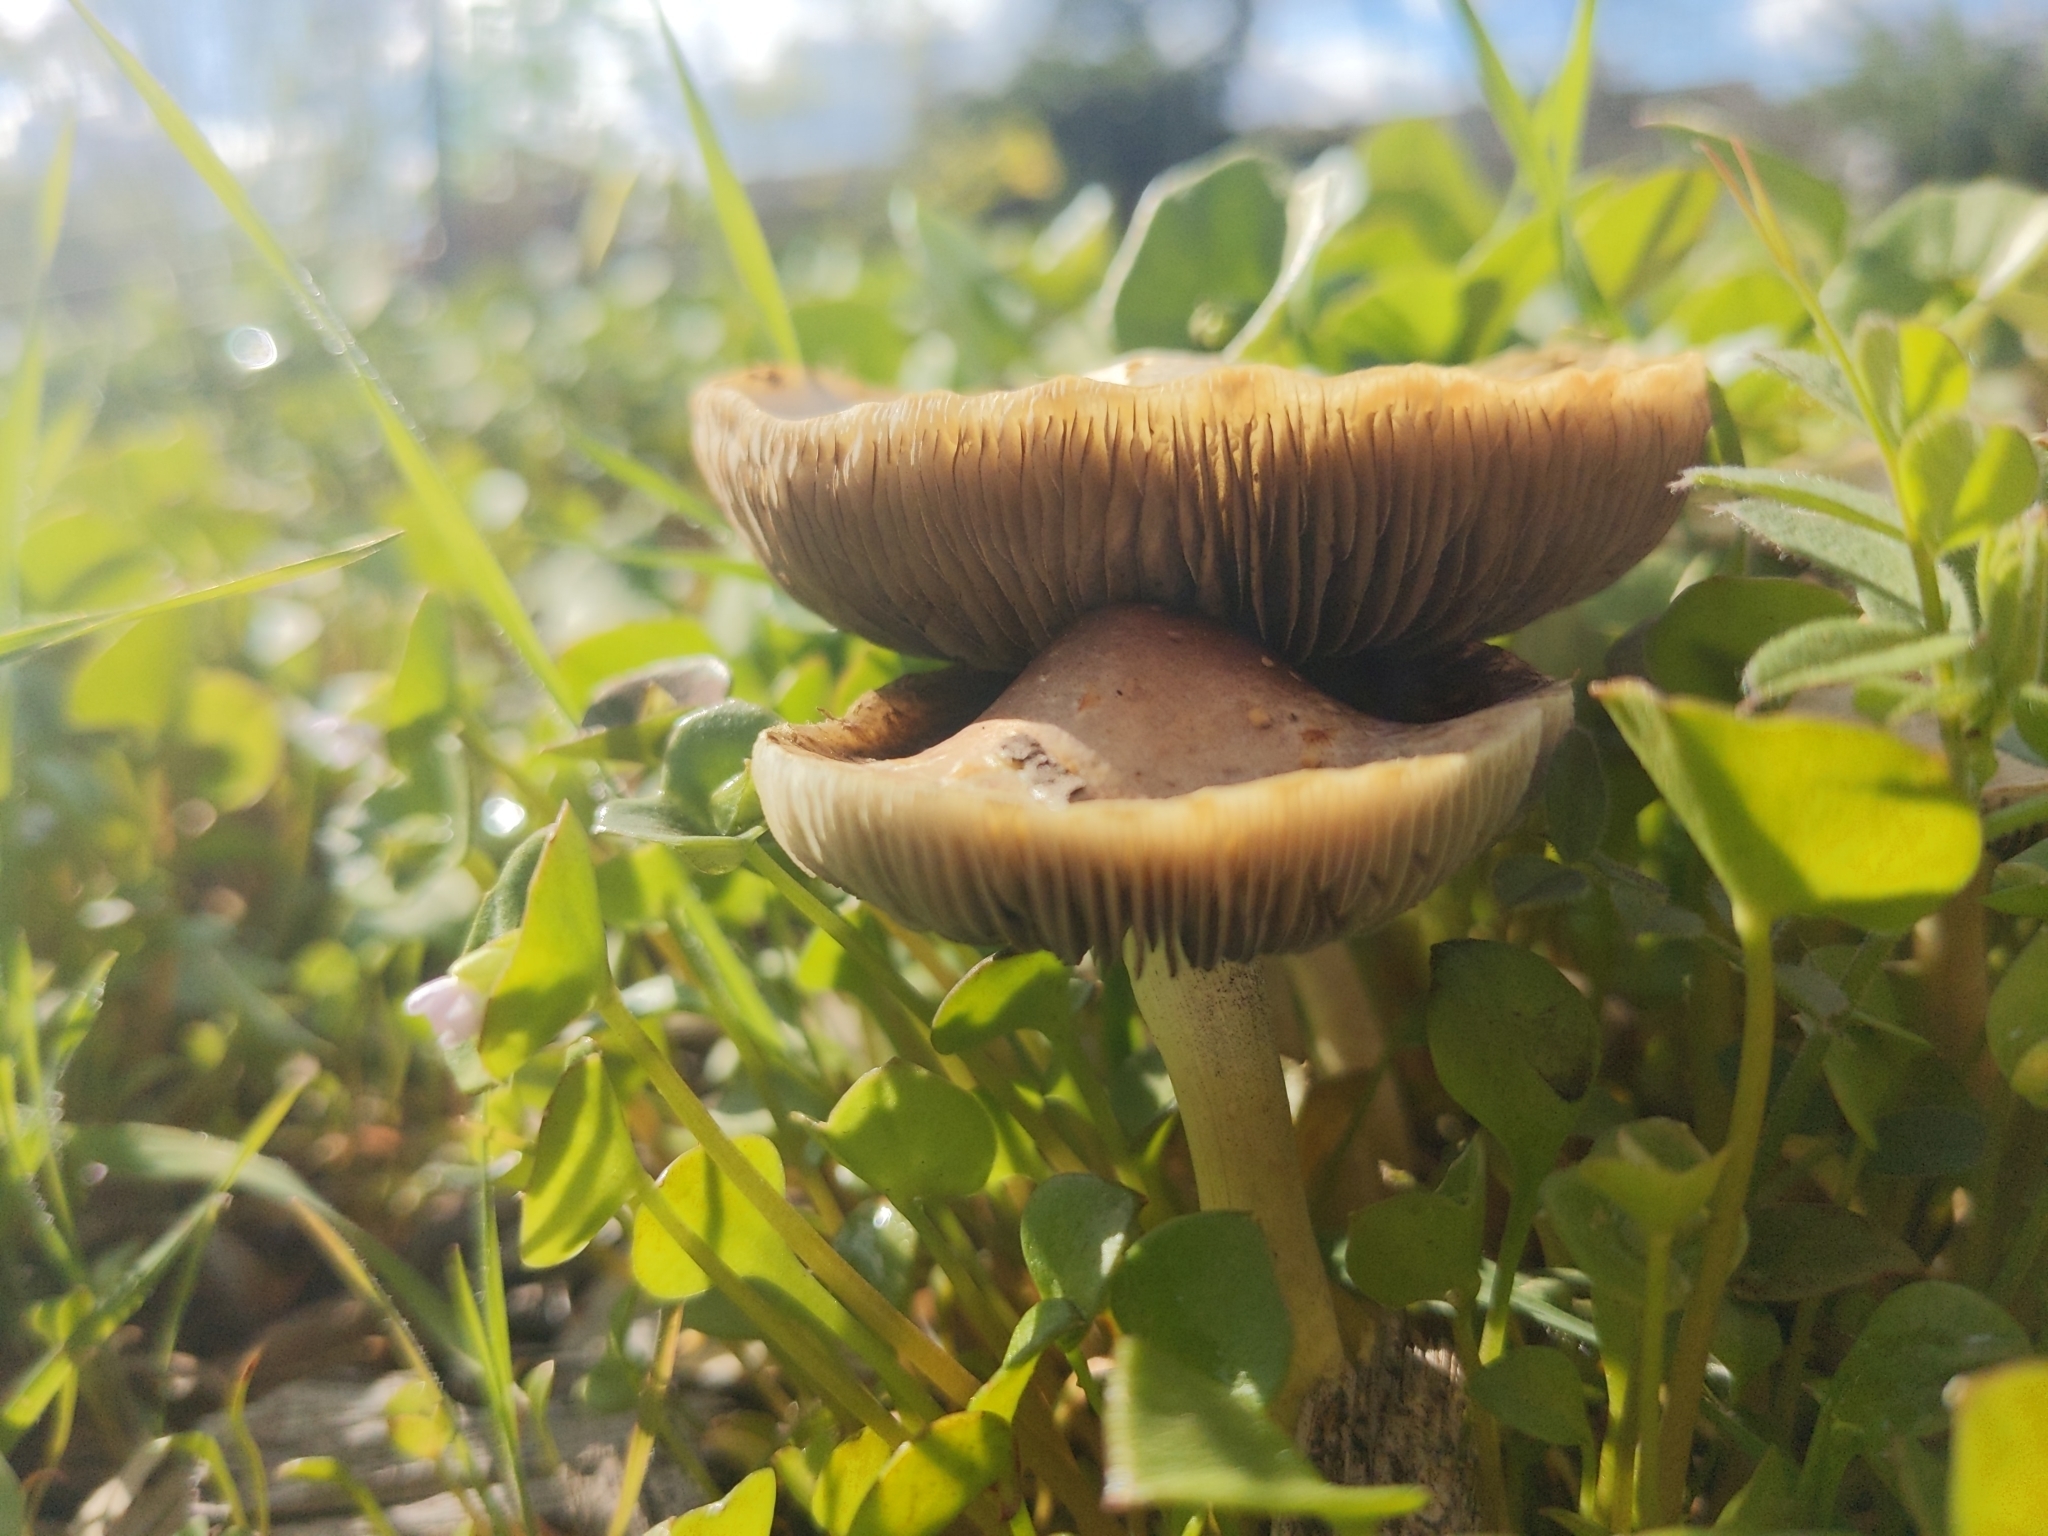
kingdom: Fungi
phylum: Basidiomycota
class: Agaricomycetes
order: Agaricales
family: Strophariaceae
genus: Leratiomyces
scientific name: Leratiomyces percevalii
